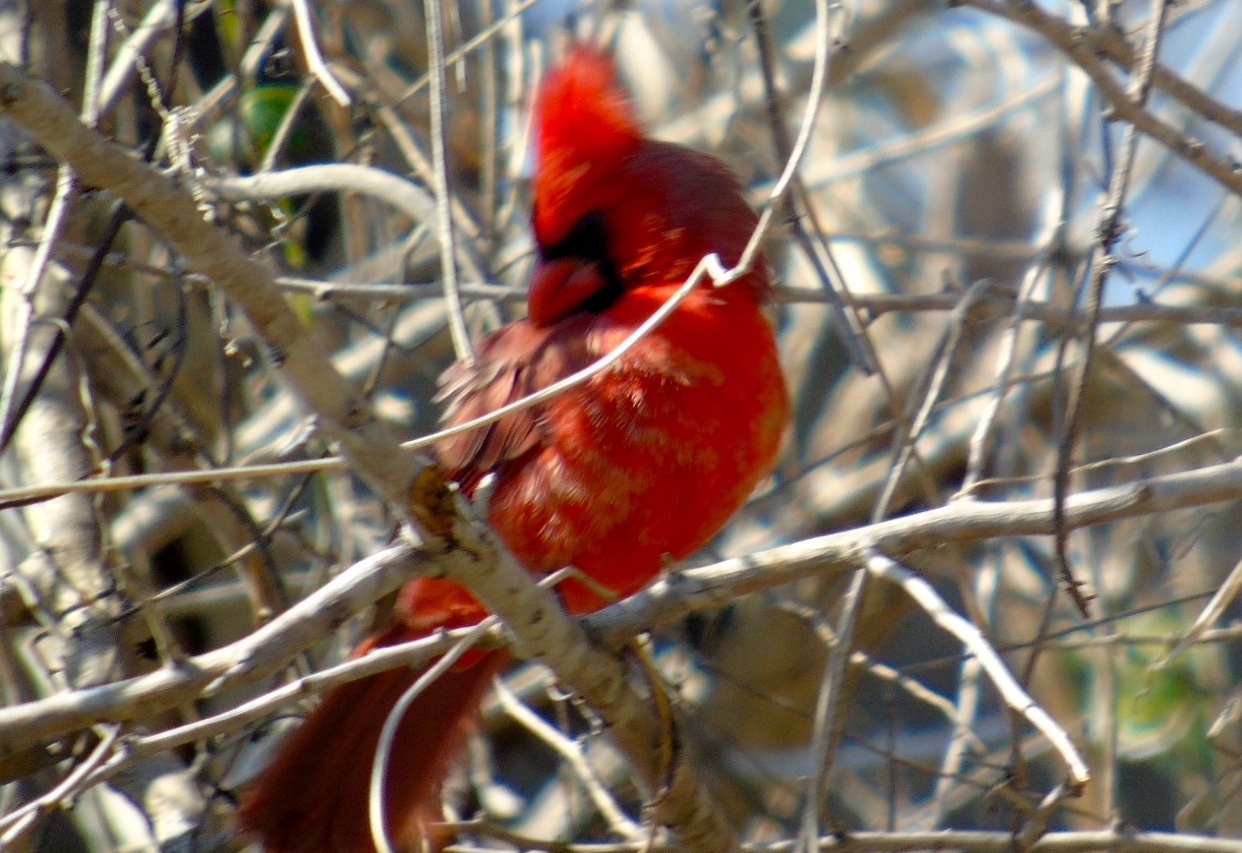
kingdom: Animalia
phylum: Chordata
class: Aves
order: Passeriformes
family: Cardinalidae
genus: Cardinalis
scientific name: Cardinalis cardinalis
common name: Northern cardinal
